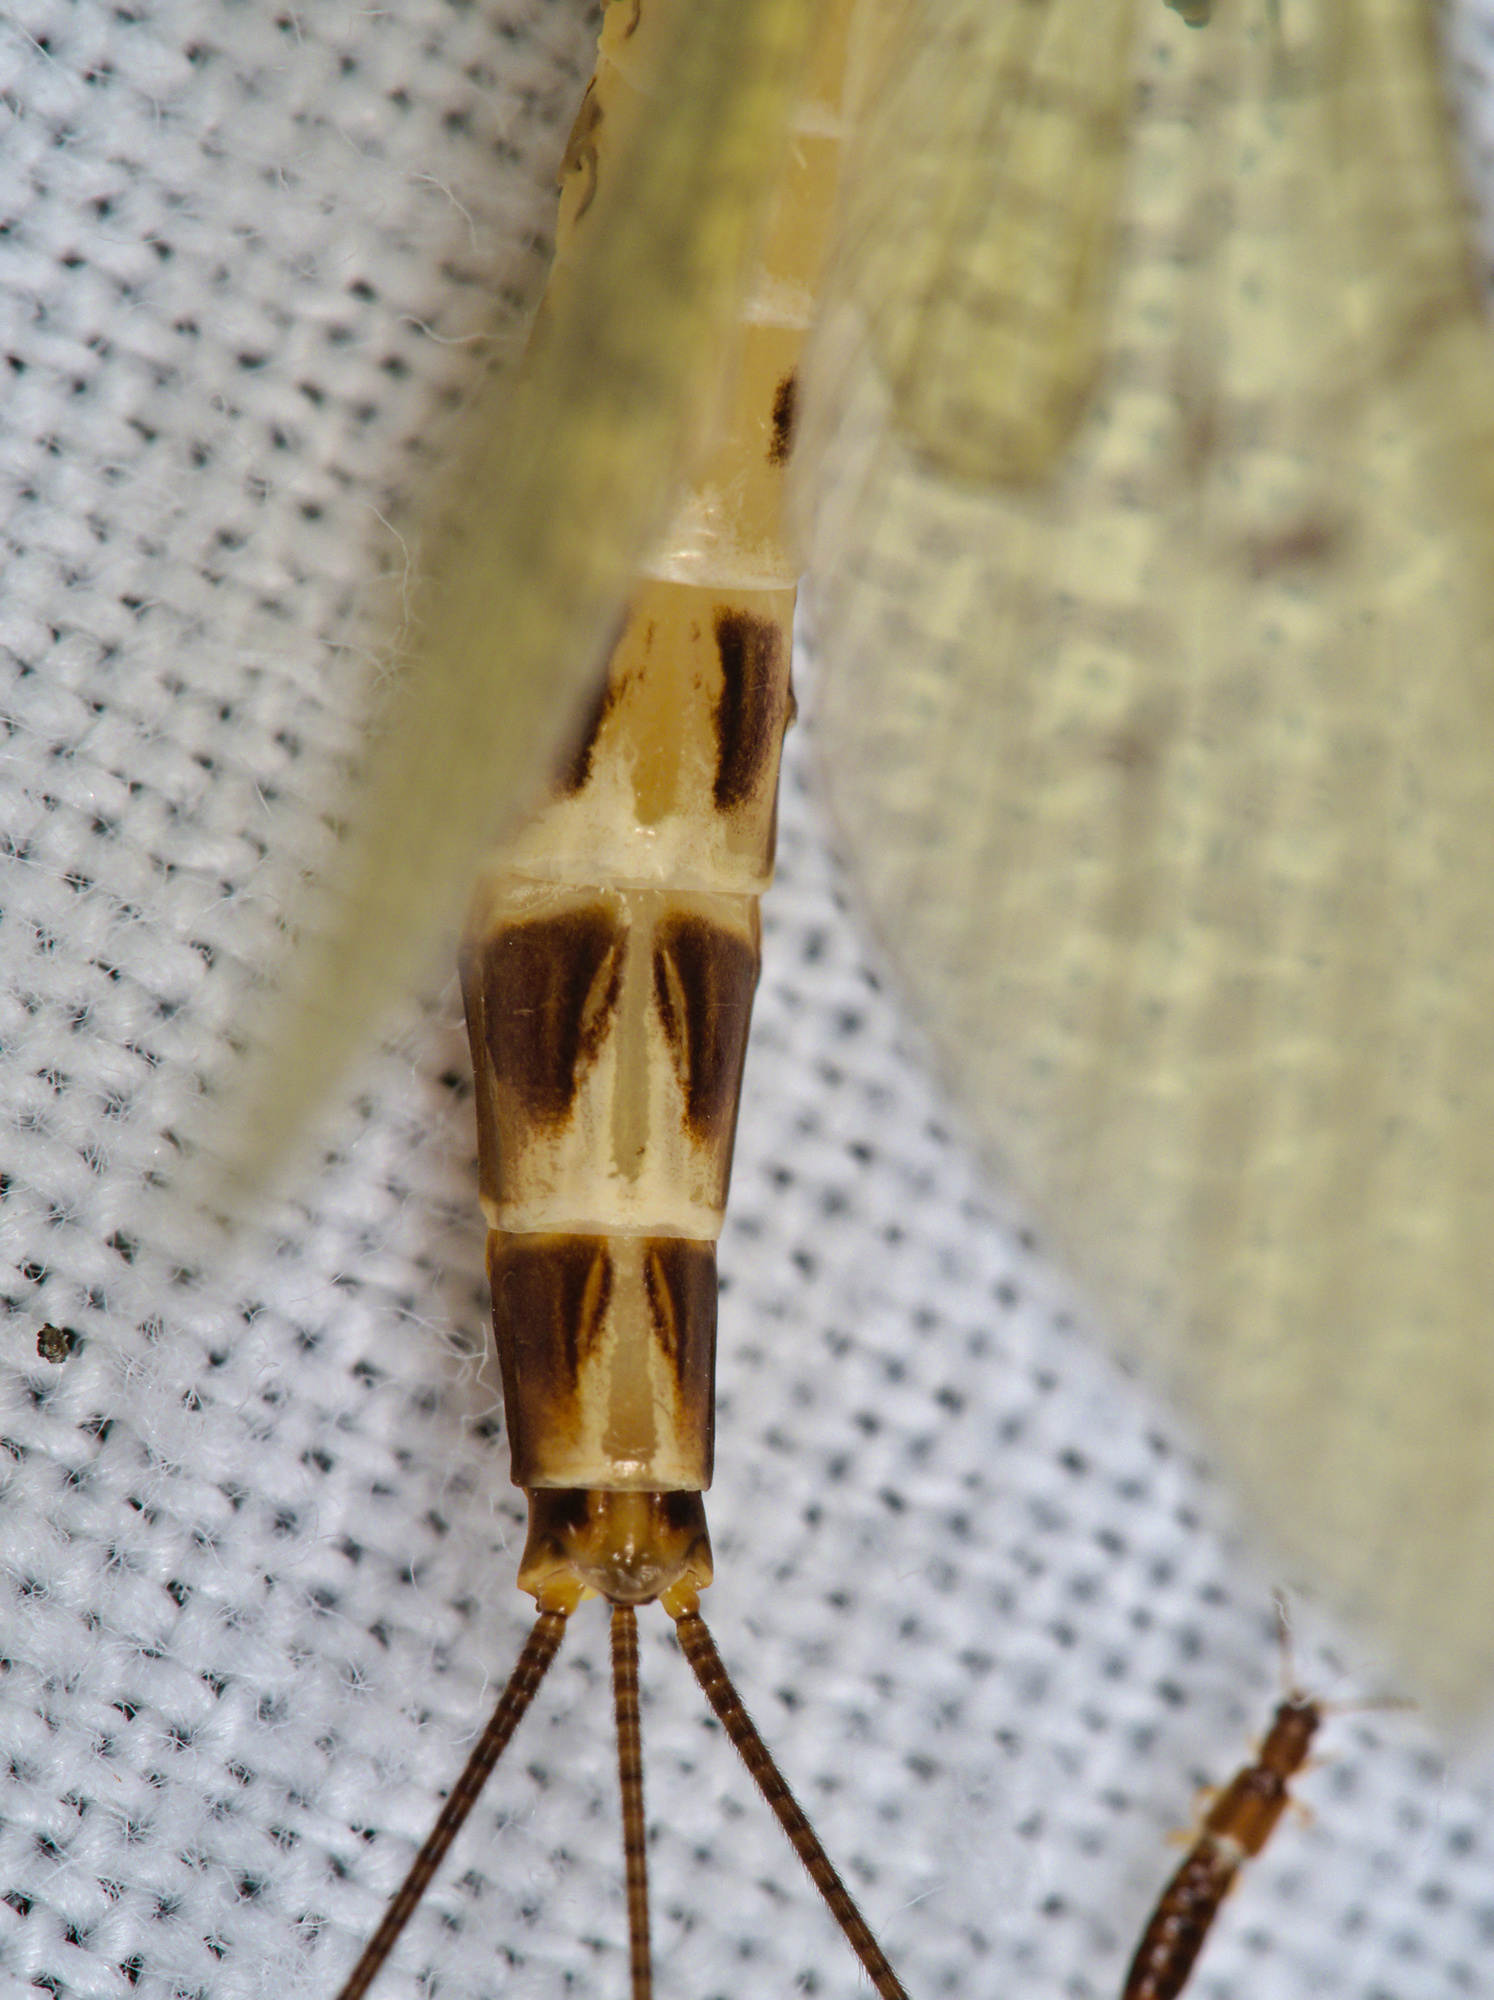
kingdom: Animalia
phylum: Arthropoda
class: Insecta
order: Ephemeroptera
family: Ephemeridae
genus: Ephemera
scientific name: Ephemera danica
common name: Green dun
